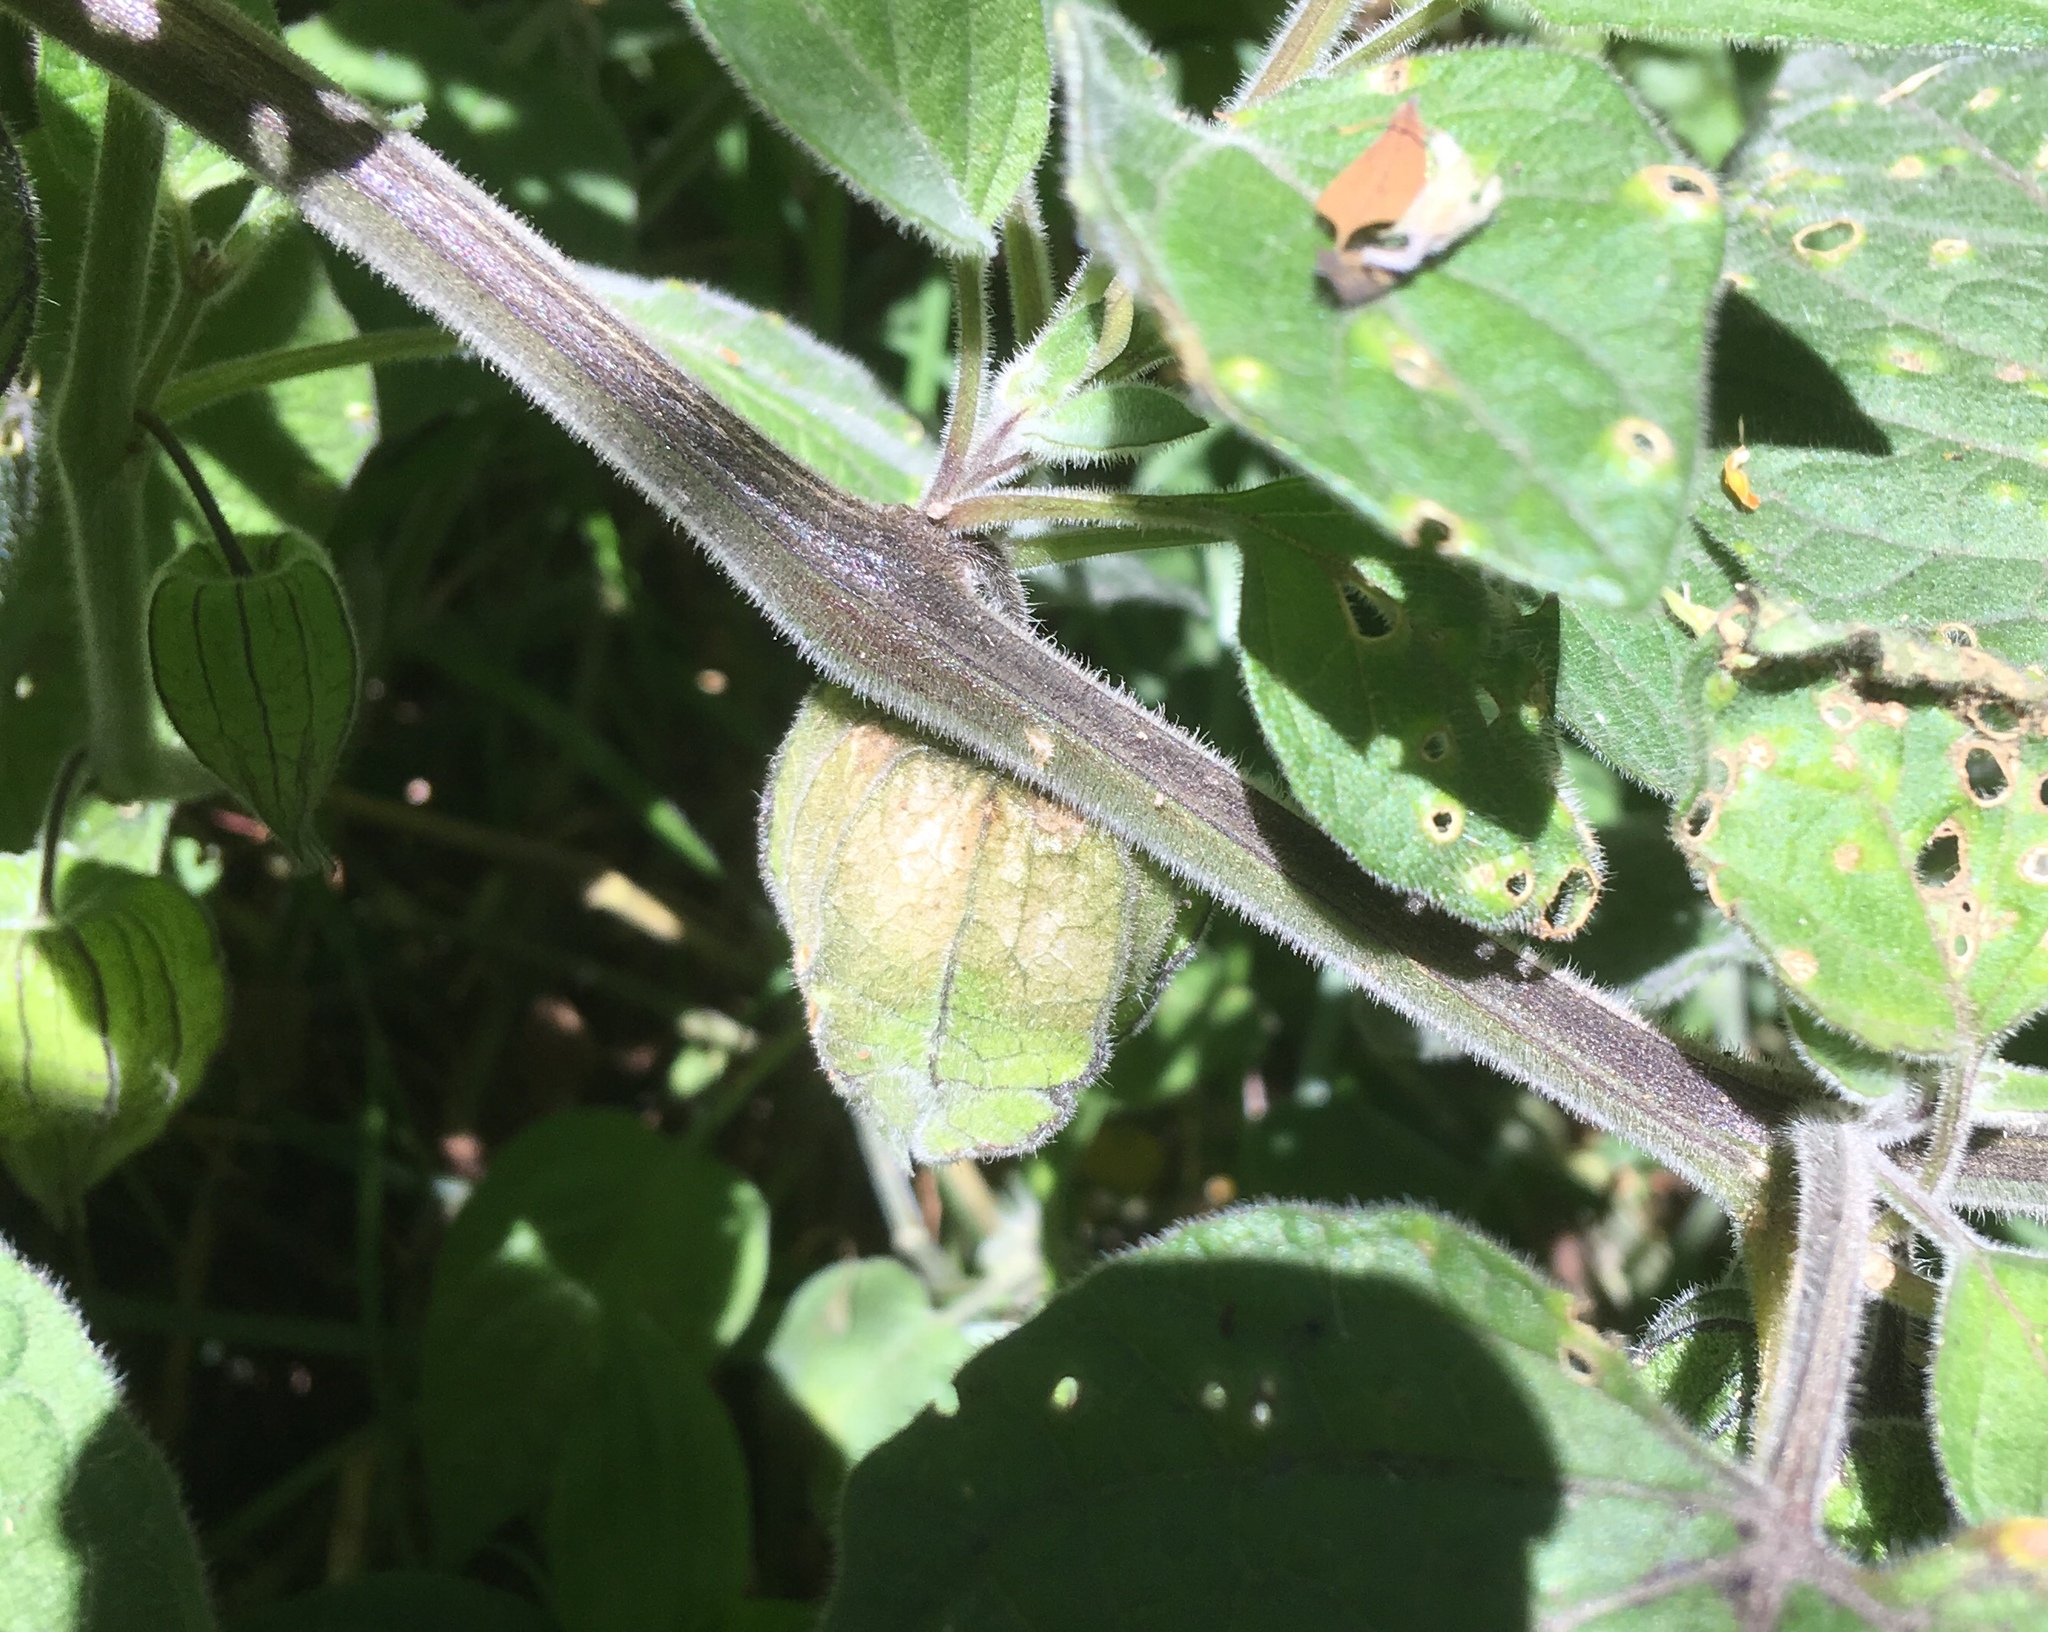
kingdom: Plantae
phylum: Tracheophyta
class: Magnoliopsida
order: Solanales
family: Solanaceae
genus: Physalis
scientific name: Physalis peruviana
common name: Cape-gooseberry
